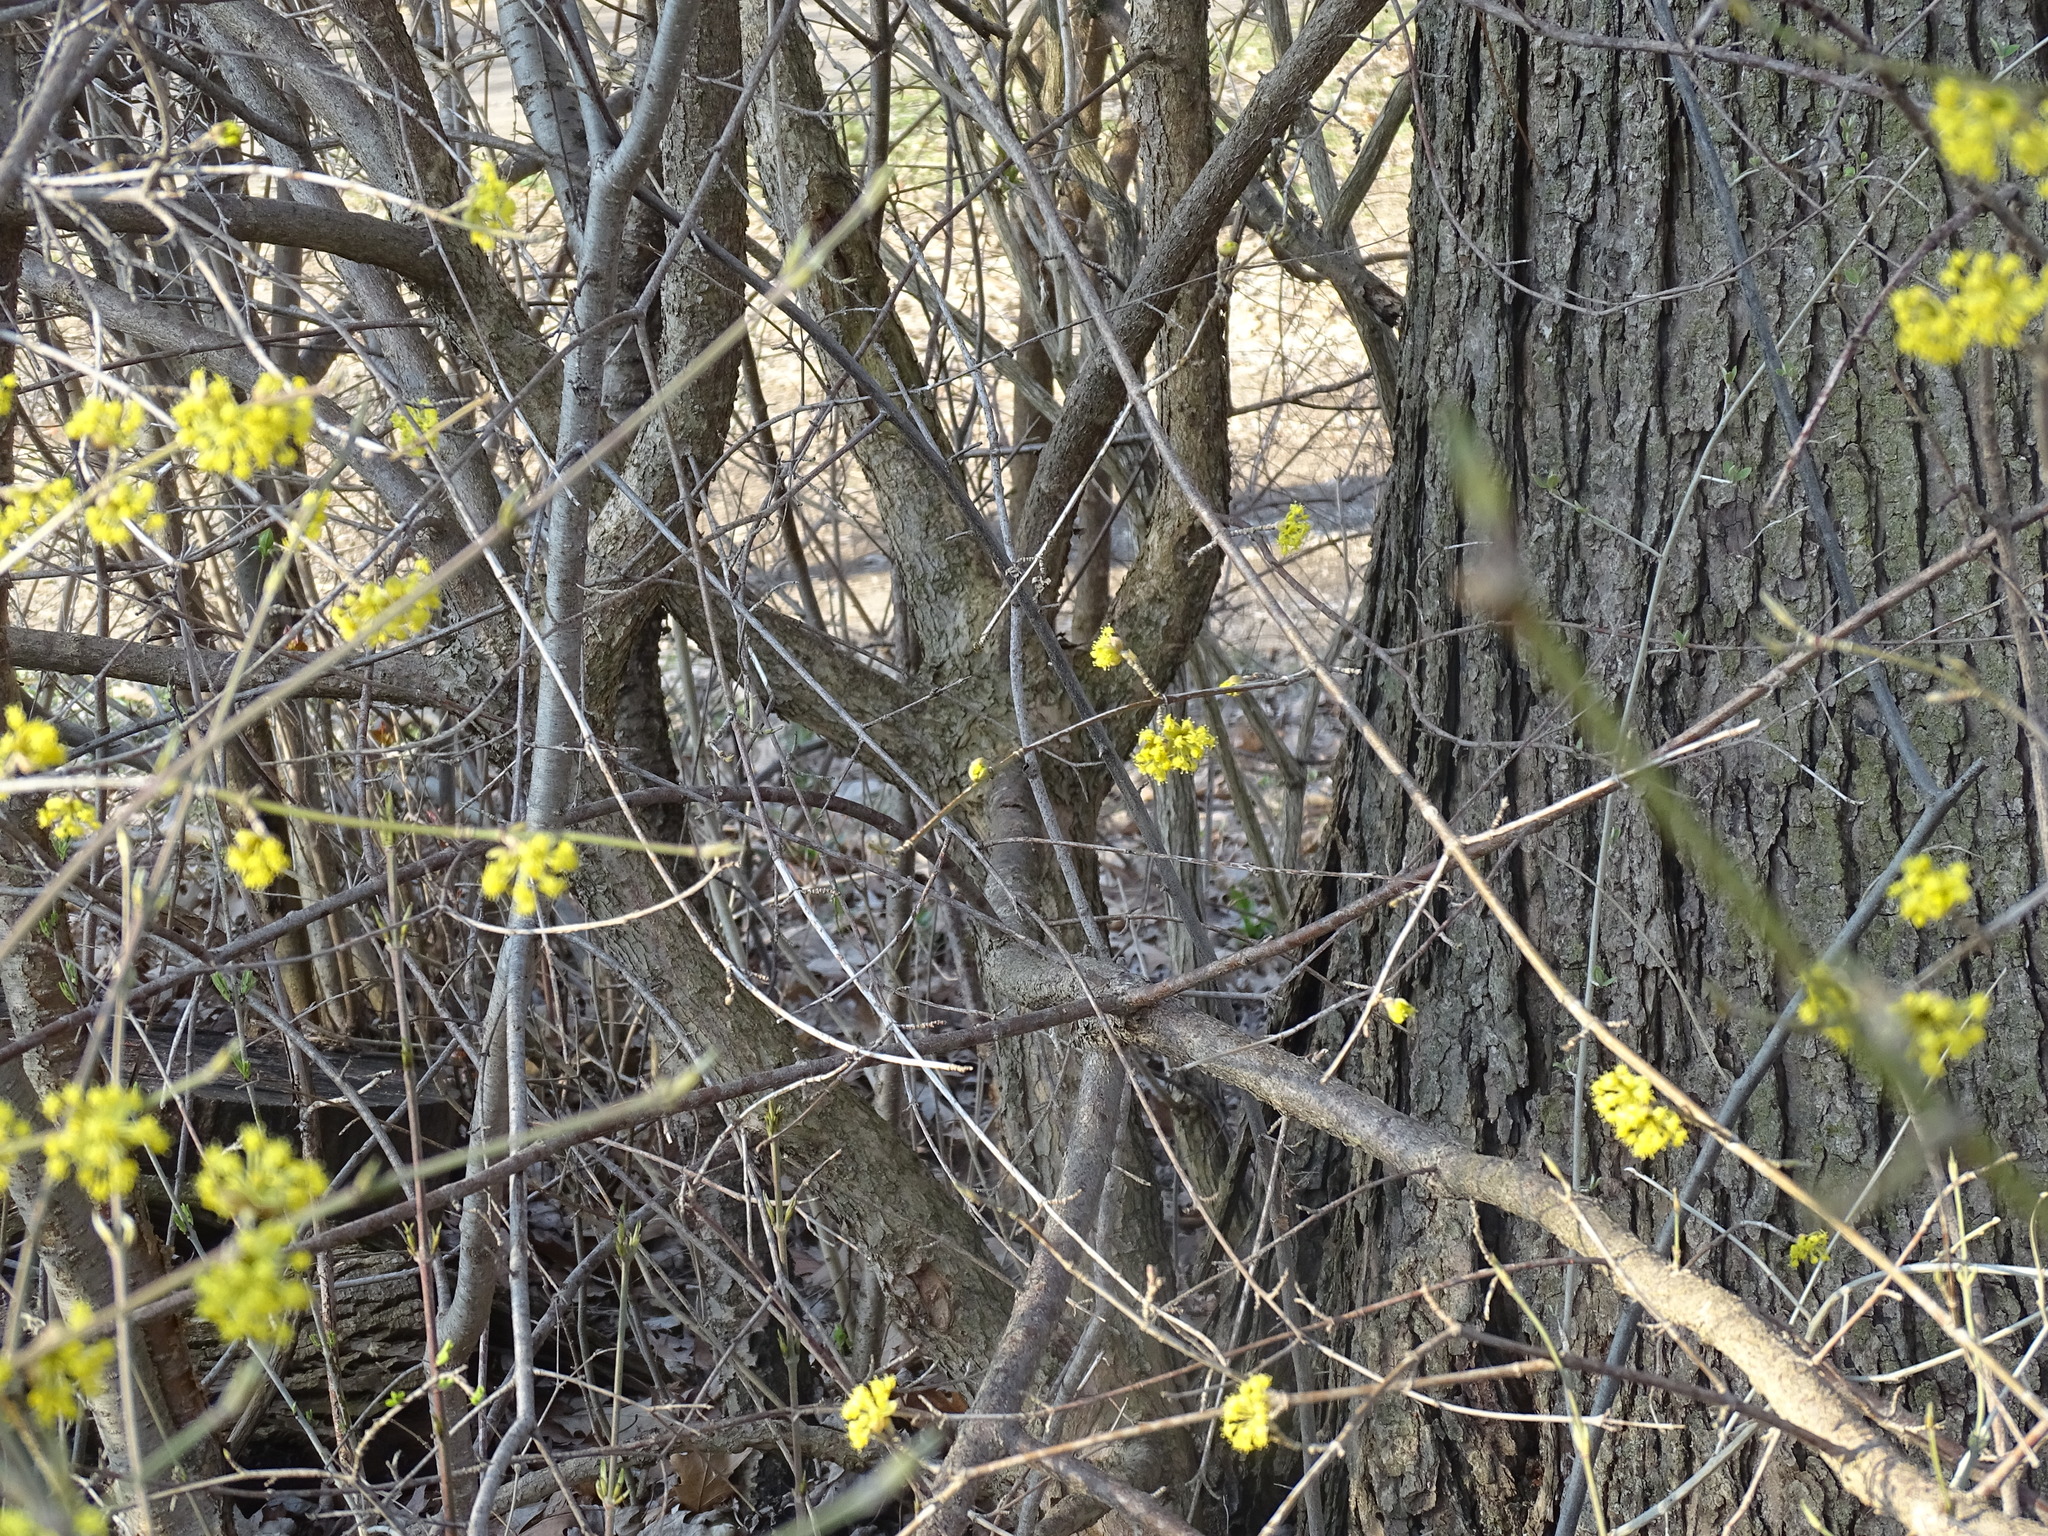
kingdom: Plantae
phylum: Tracheophyta
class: Magnoliopsida
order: Cornales
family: Cornaceae
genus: Cornus
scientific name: Cornus mas
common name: Cornelian-cherry
